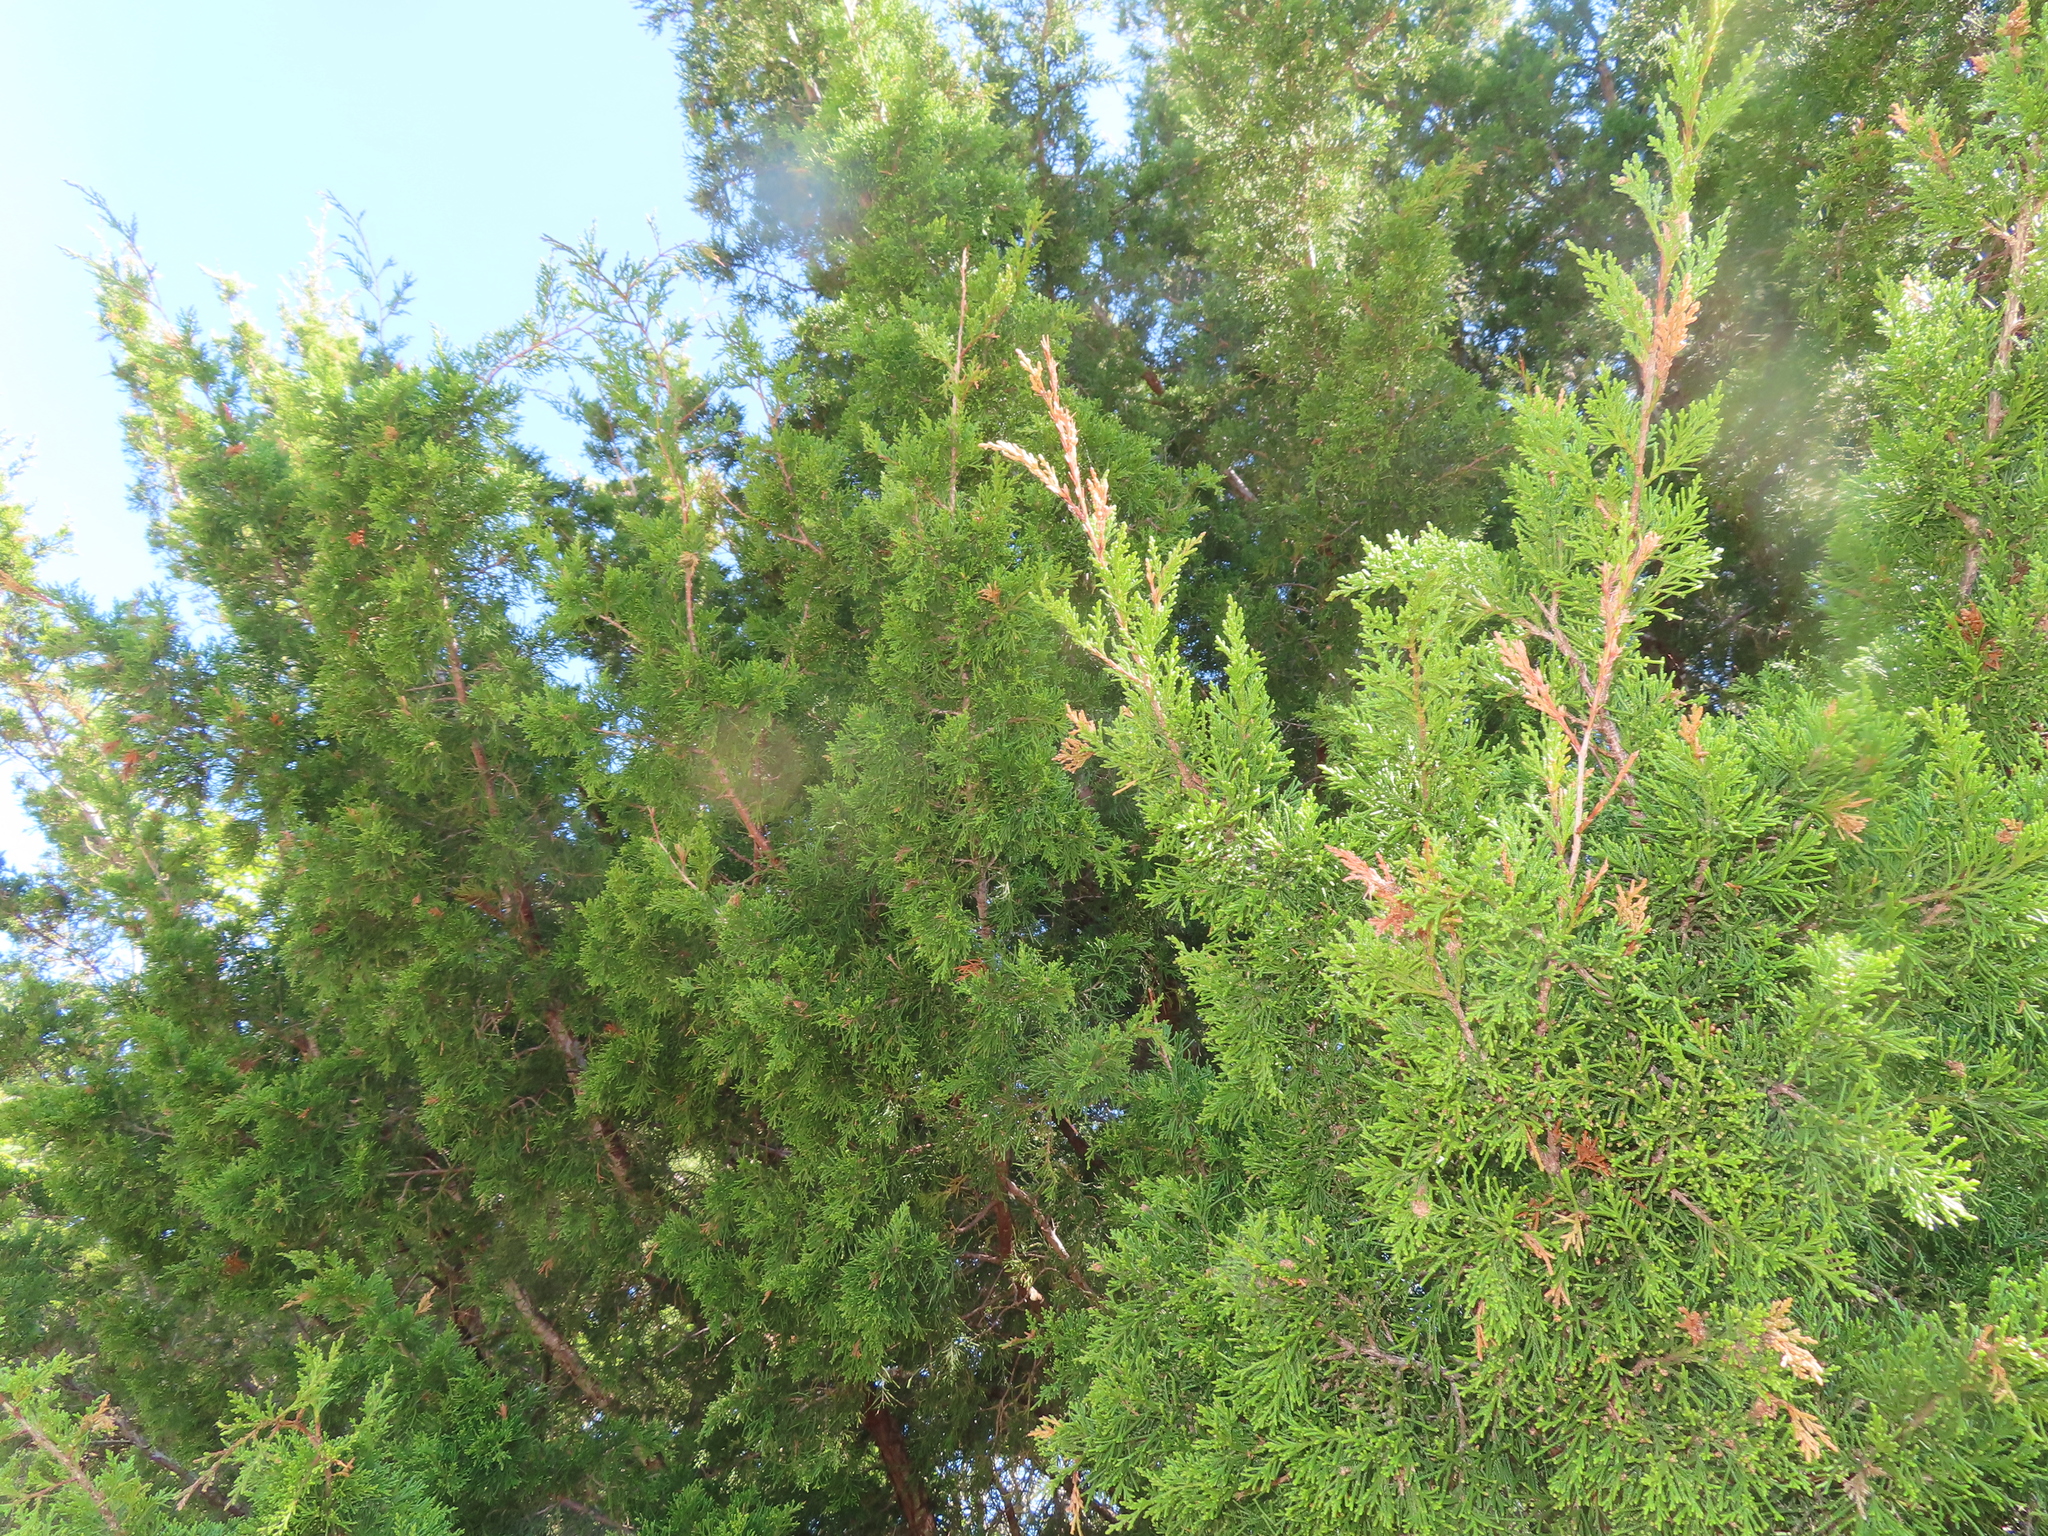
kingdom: Plantae
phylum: Tracheophyta
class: Pinopsida
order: Pinales
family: Cupressaceae
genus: Juniperus
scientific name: Juniperus virginiana
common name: Red juniper
